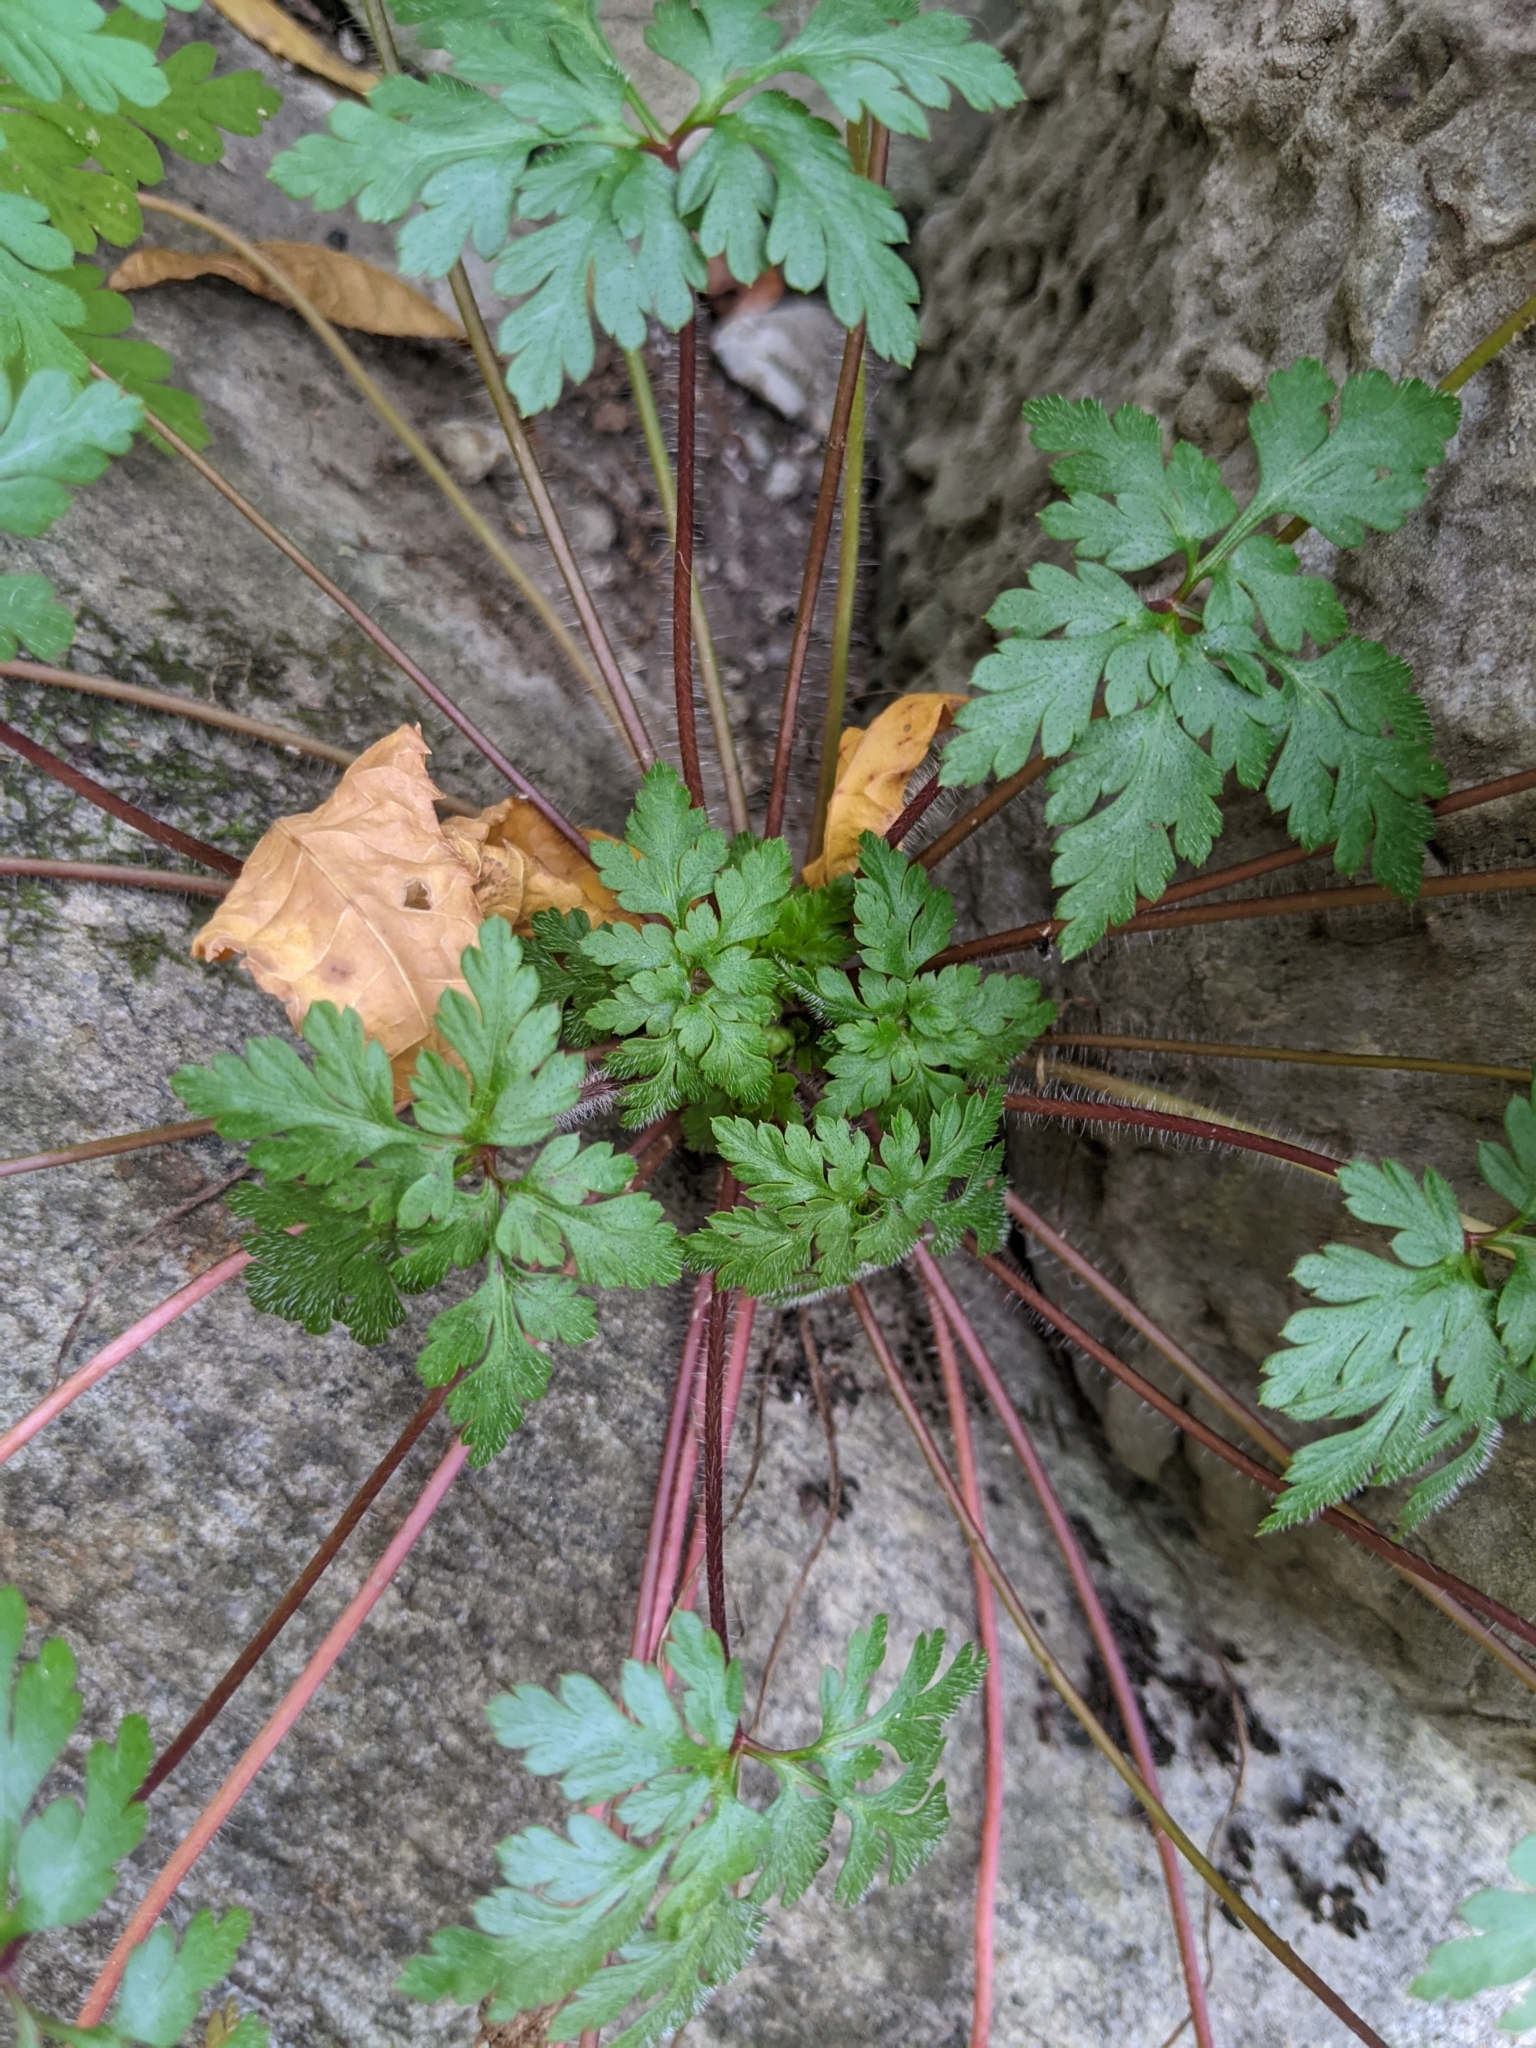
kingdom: Plantae
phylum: Tracheophyta
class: Magnoliopsida
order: Geraniales
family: Geraniaceae
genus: Geranium
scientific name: Geranium robertianum
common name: Herb-robert
